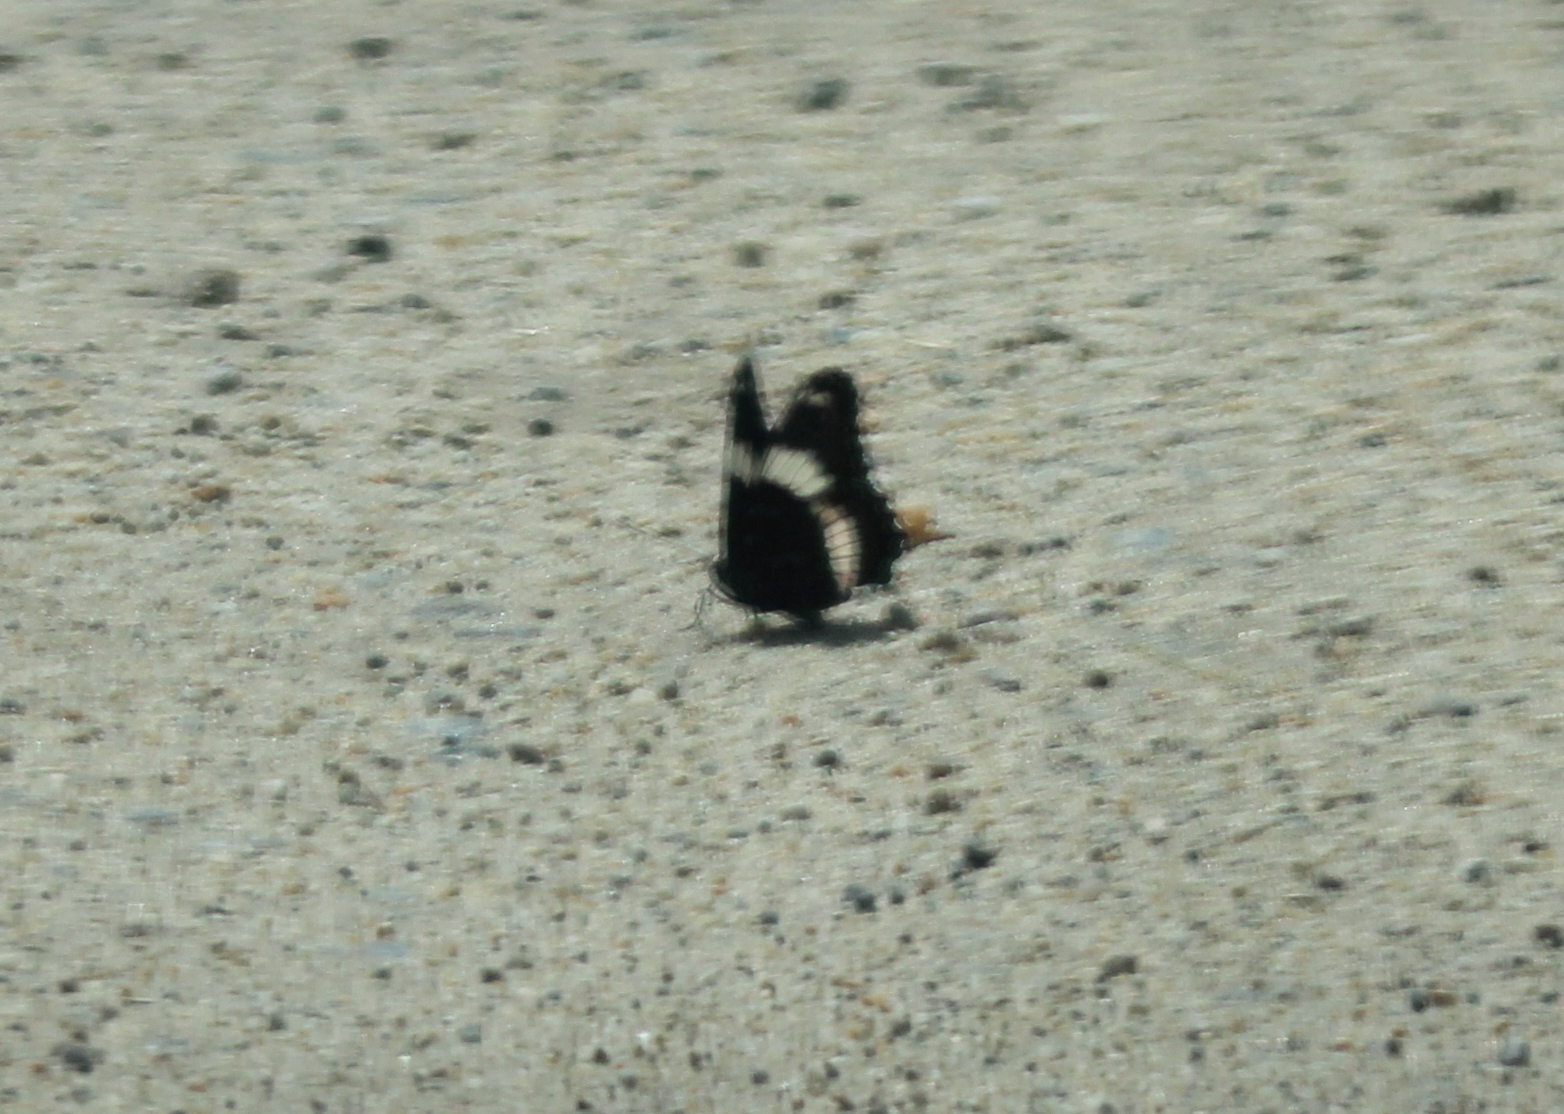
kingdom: Animalia
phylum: Arthropoda
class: Insecta
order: Lepidoptera
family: Nymphalidae
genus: Limenitis
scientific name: Limenitis arthemis
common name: Red-spotted admiral
